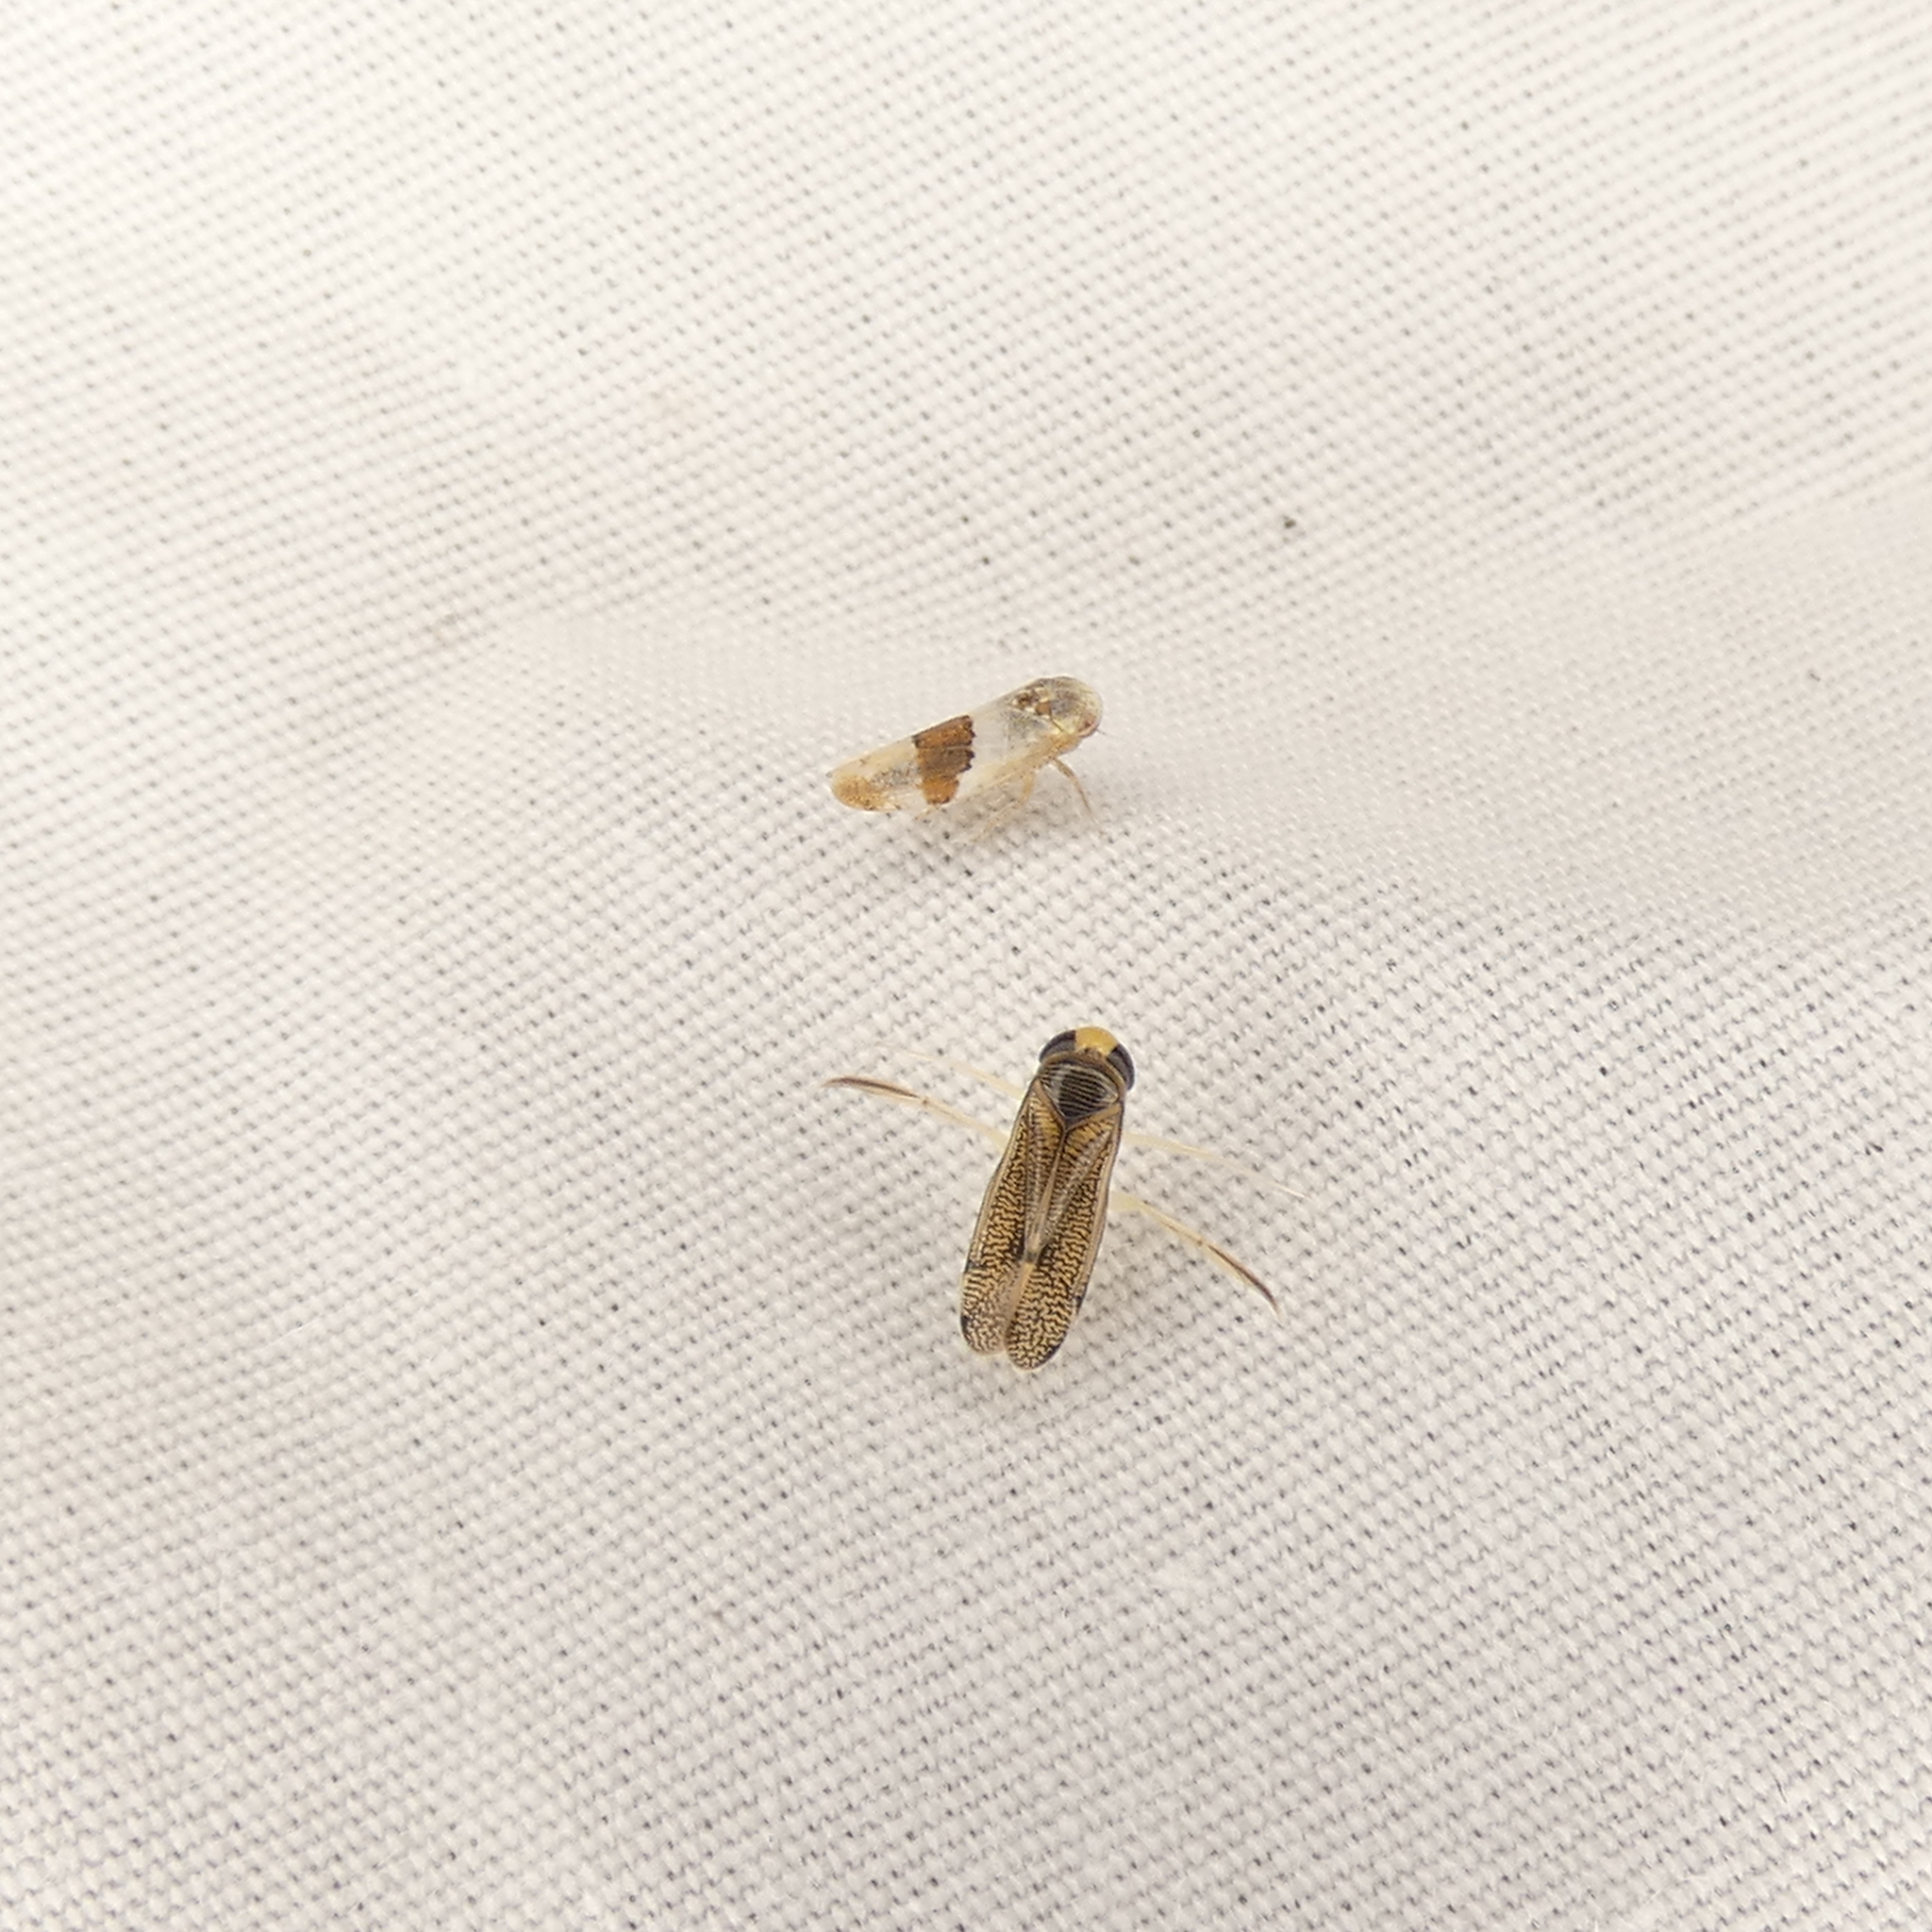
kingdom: Animalia
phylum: Arthropoda
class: Insecta
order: Hemiptera
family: Corixidae
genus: Trichocorixa
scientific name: Trichocorixa
